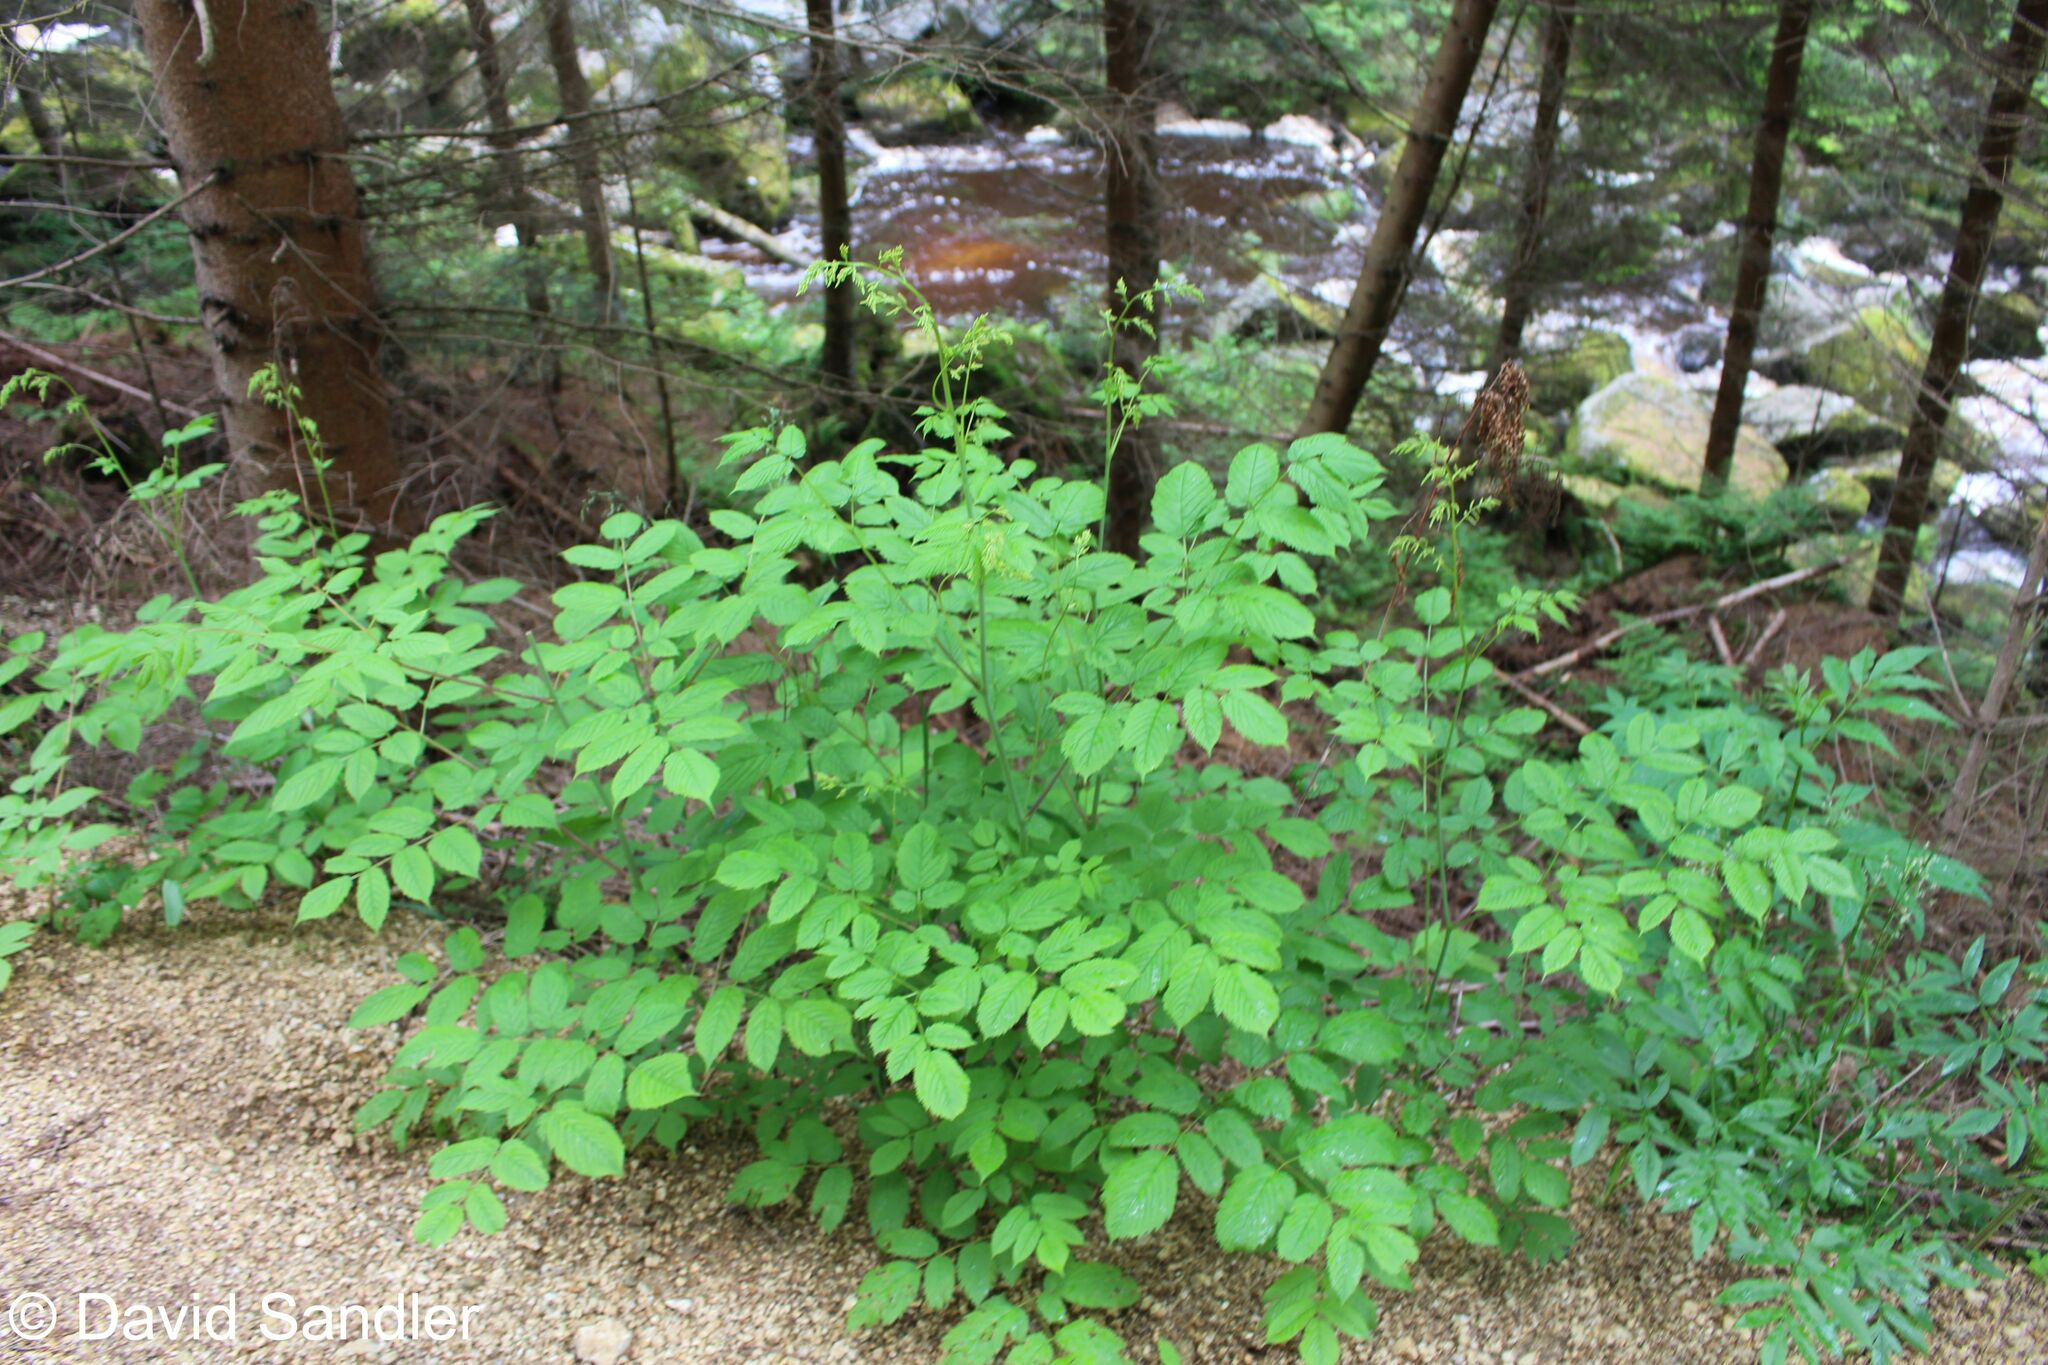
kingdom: Plantae
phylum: Tracheophyta
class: Magnoliopsida
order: Rosales
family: Rosaceae
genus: Aruncus
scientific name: Aruncus dioicus
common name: Buck's-beard
